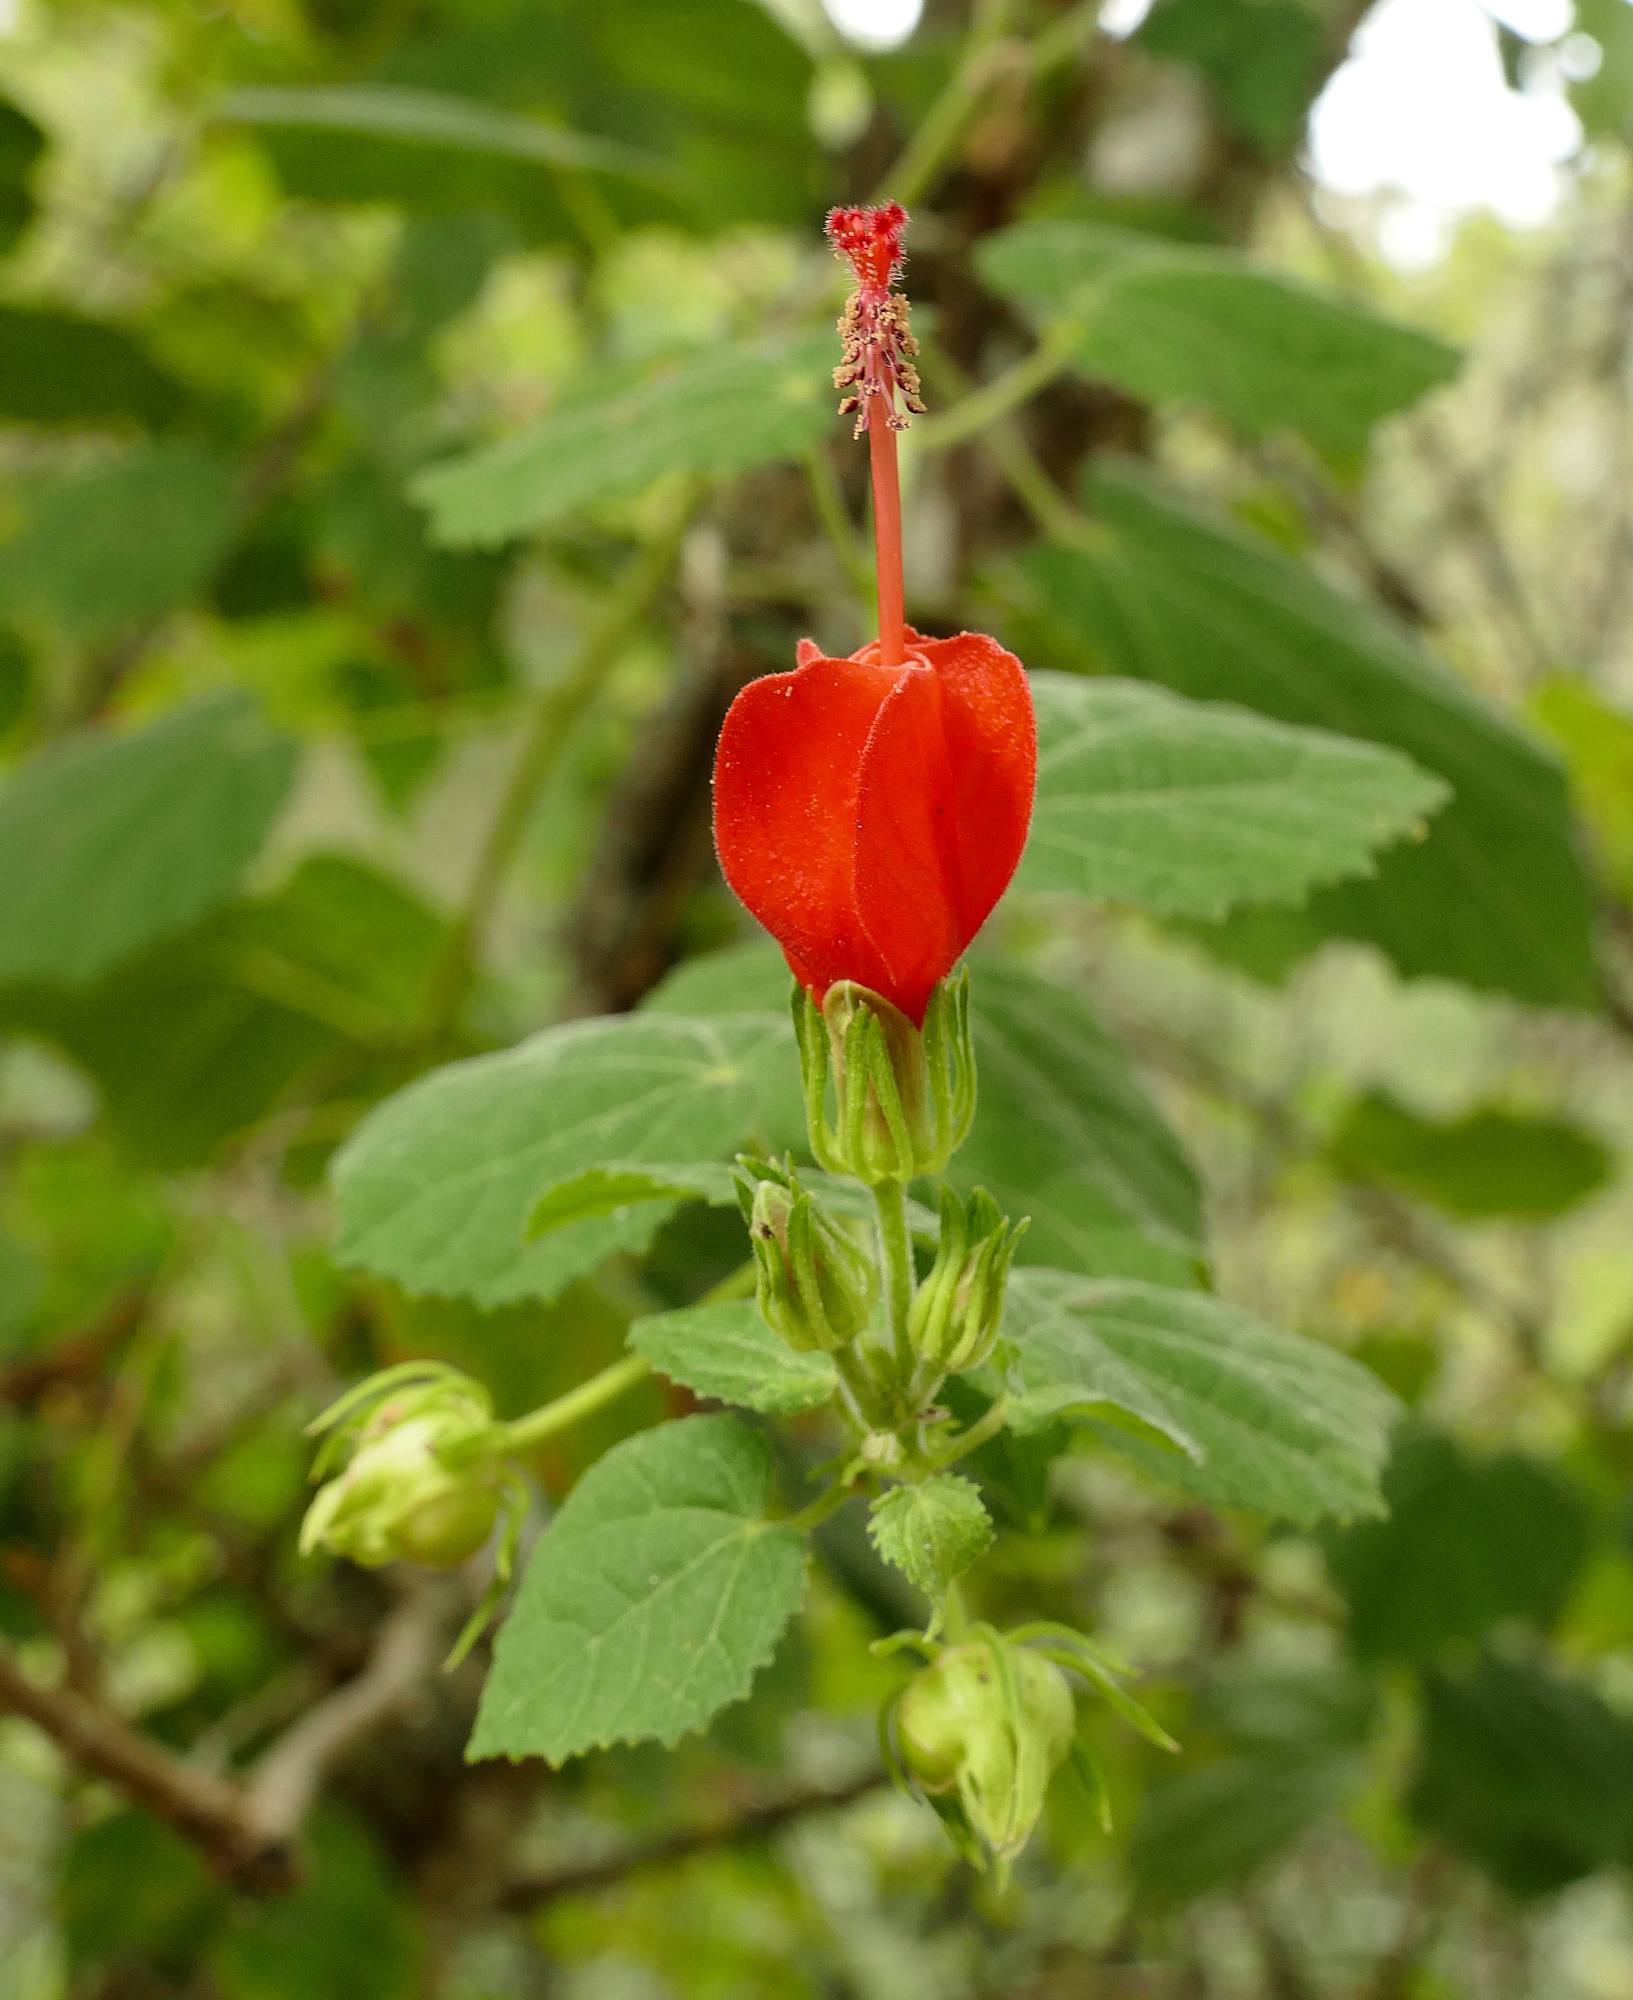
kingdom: Plantae
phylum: Tracheophyta
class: Magnoliopsida
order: Malvales
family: Malvaceae
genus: Malvaviscus
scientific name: Malvaviscus arboreus
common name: Wax mallow
